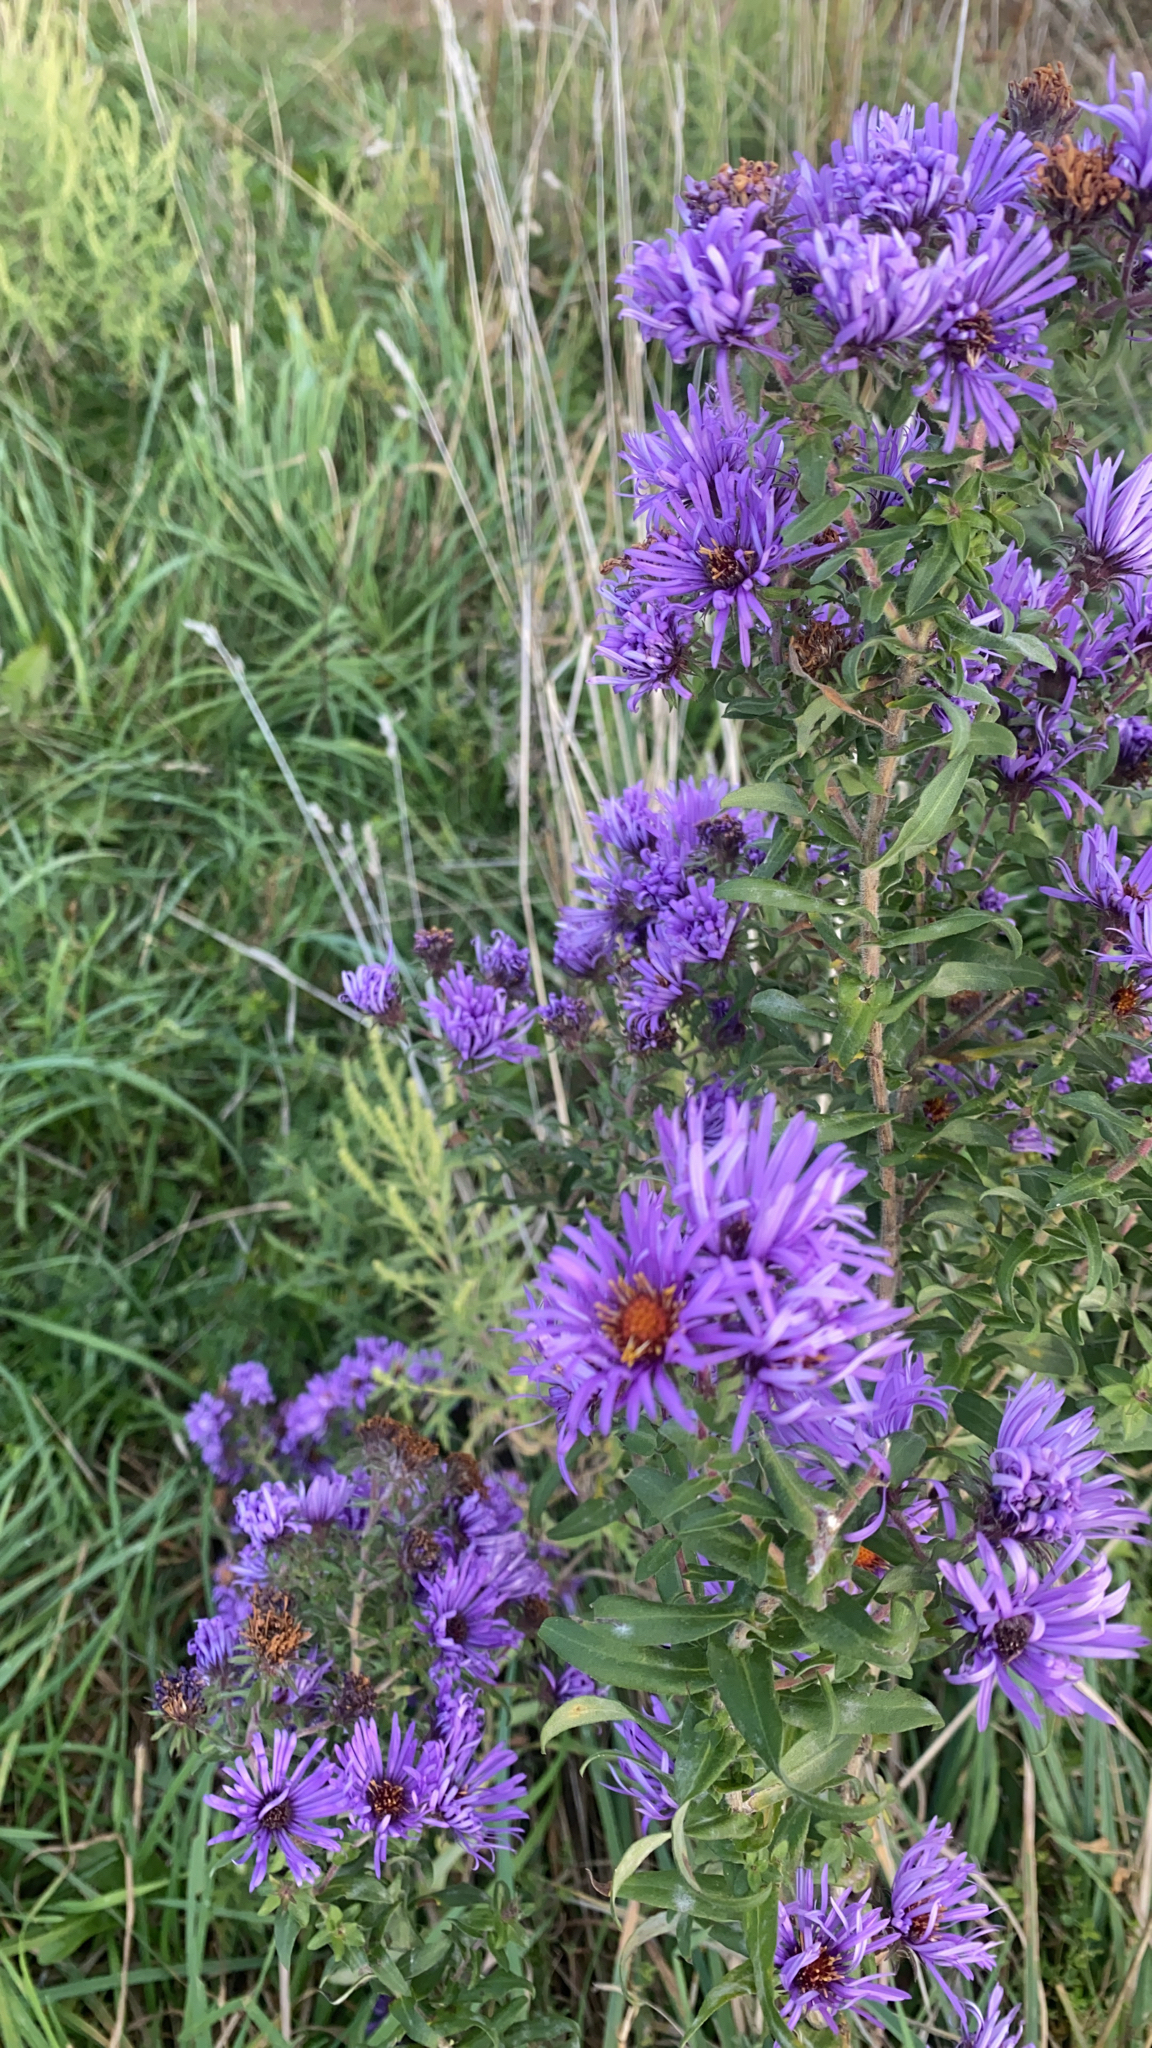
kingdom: Plantae
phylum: Tracheophyta
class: Magnoliopsida
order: Asterales
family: Asteraceae
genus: Symphyotrichum
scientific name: Symphyotrichum novae-angliae
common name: Michaelmas daisy
